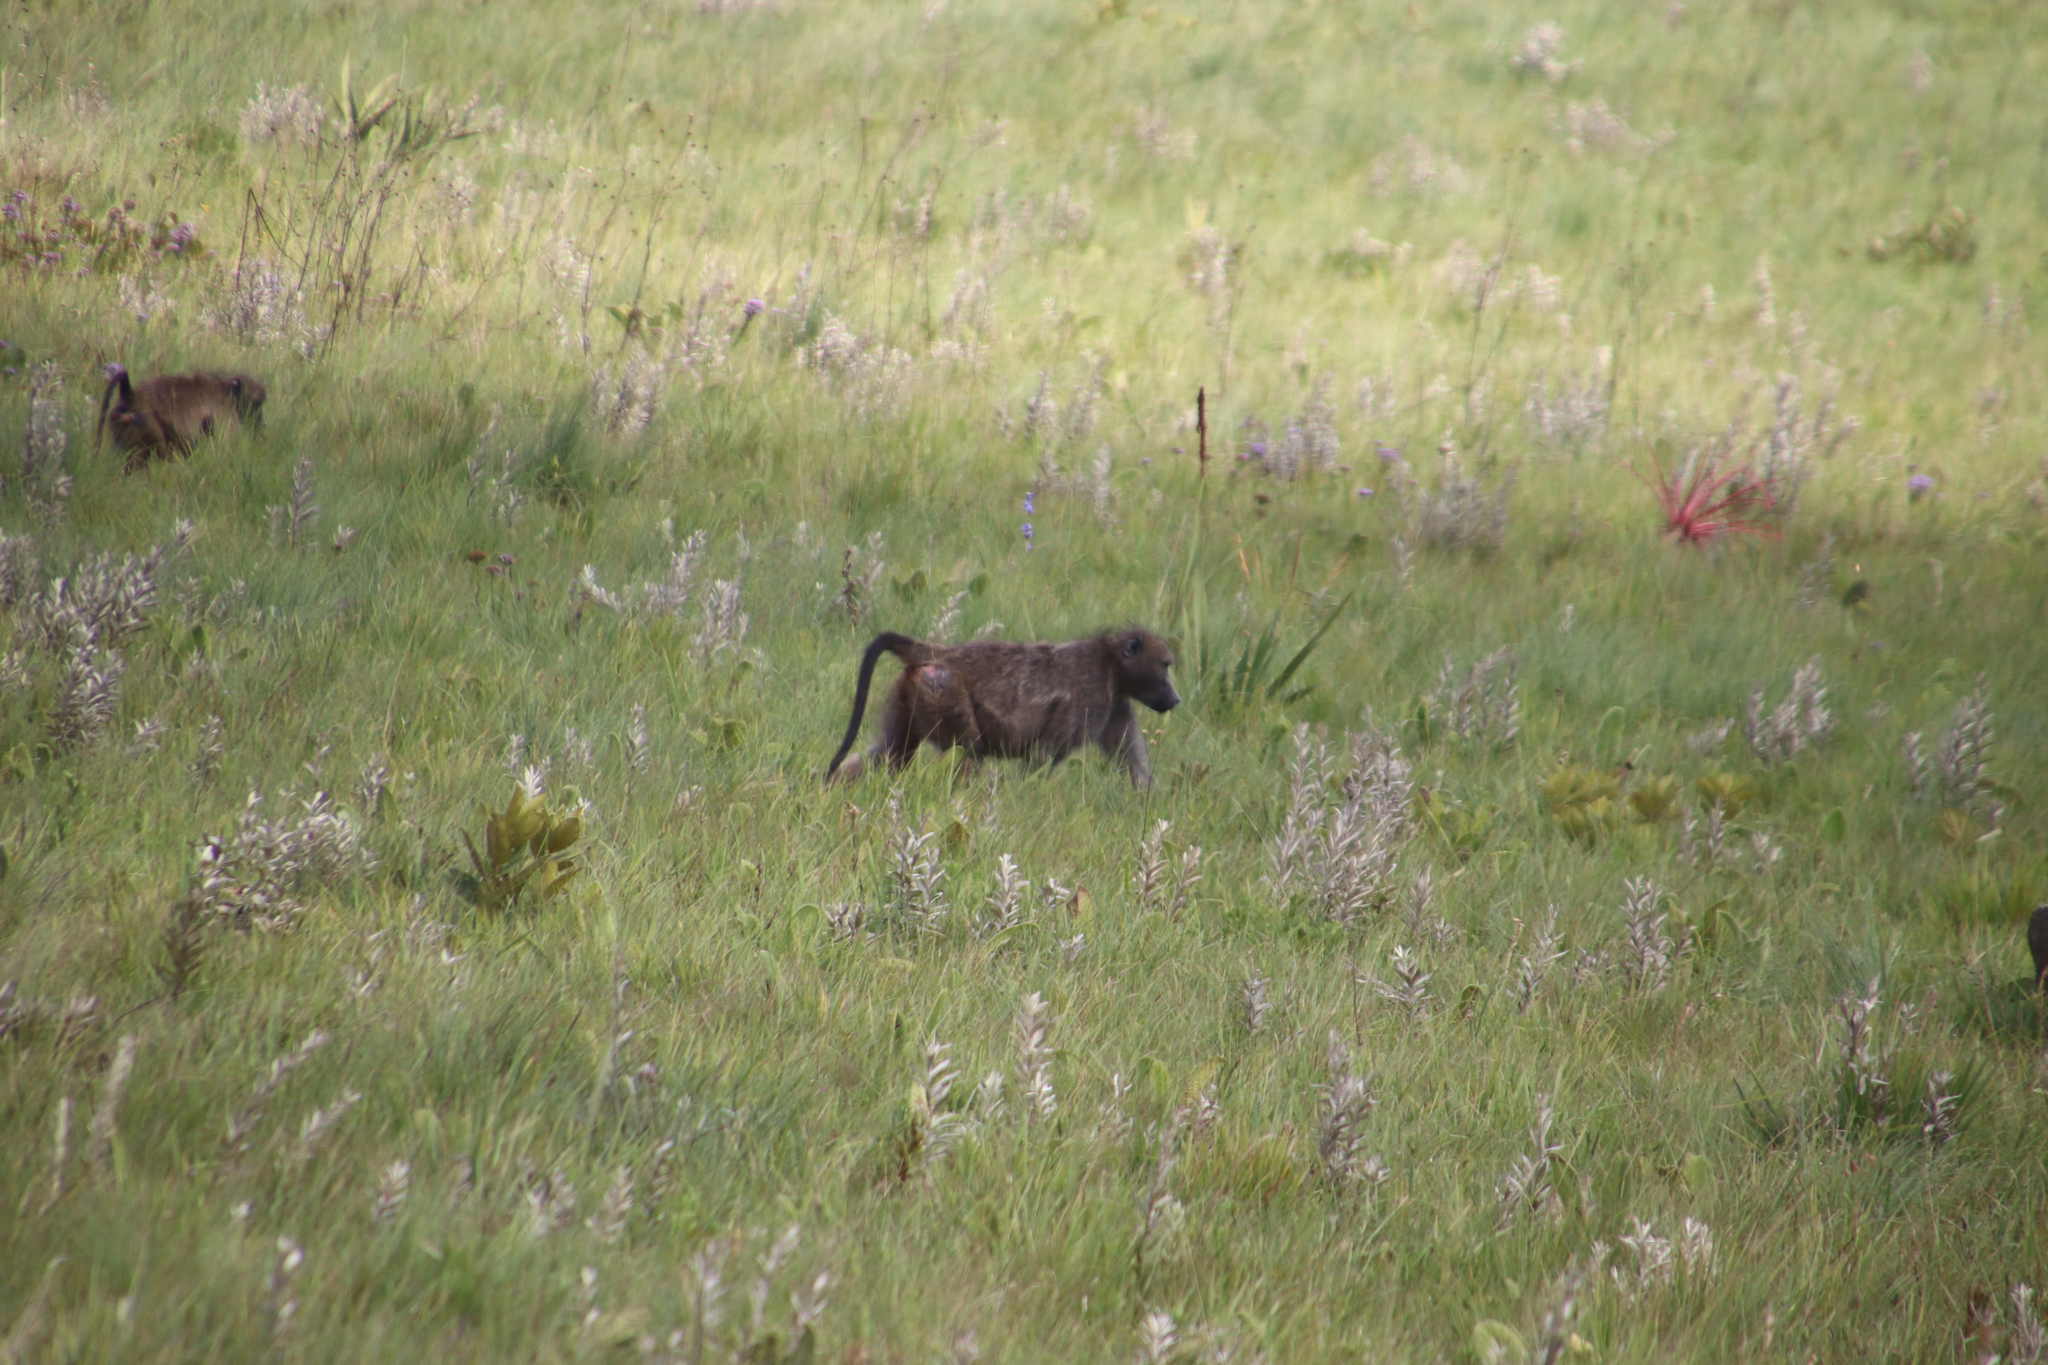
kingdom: Animalia
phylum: Chordata
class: Mammalia
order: Primates
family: Cercopithecidae
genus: Papio
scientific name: Papio ursinus
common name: Chacma baboon
